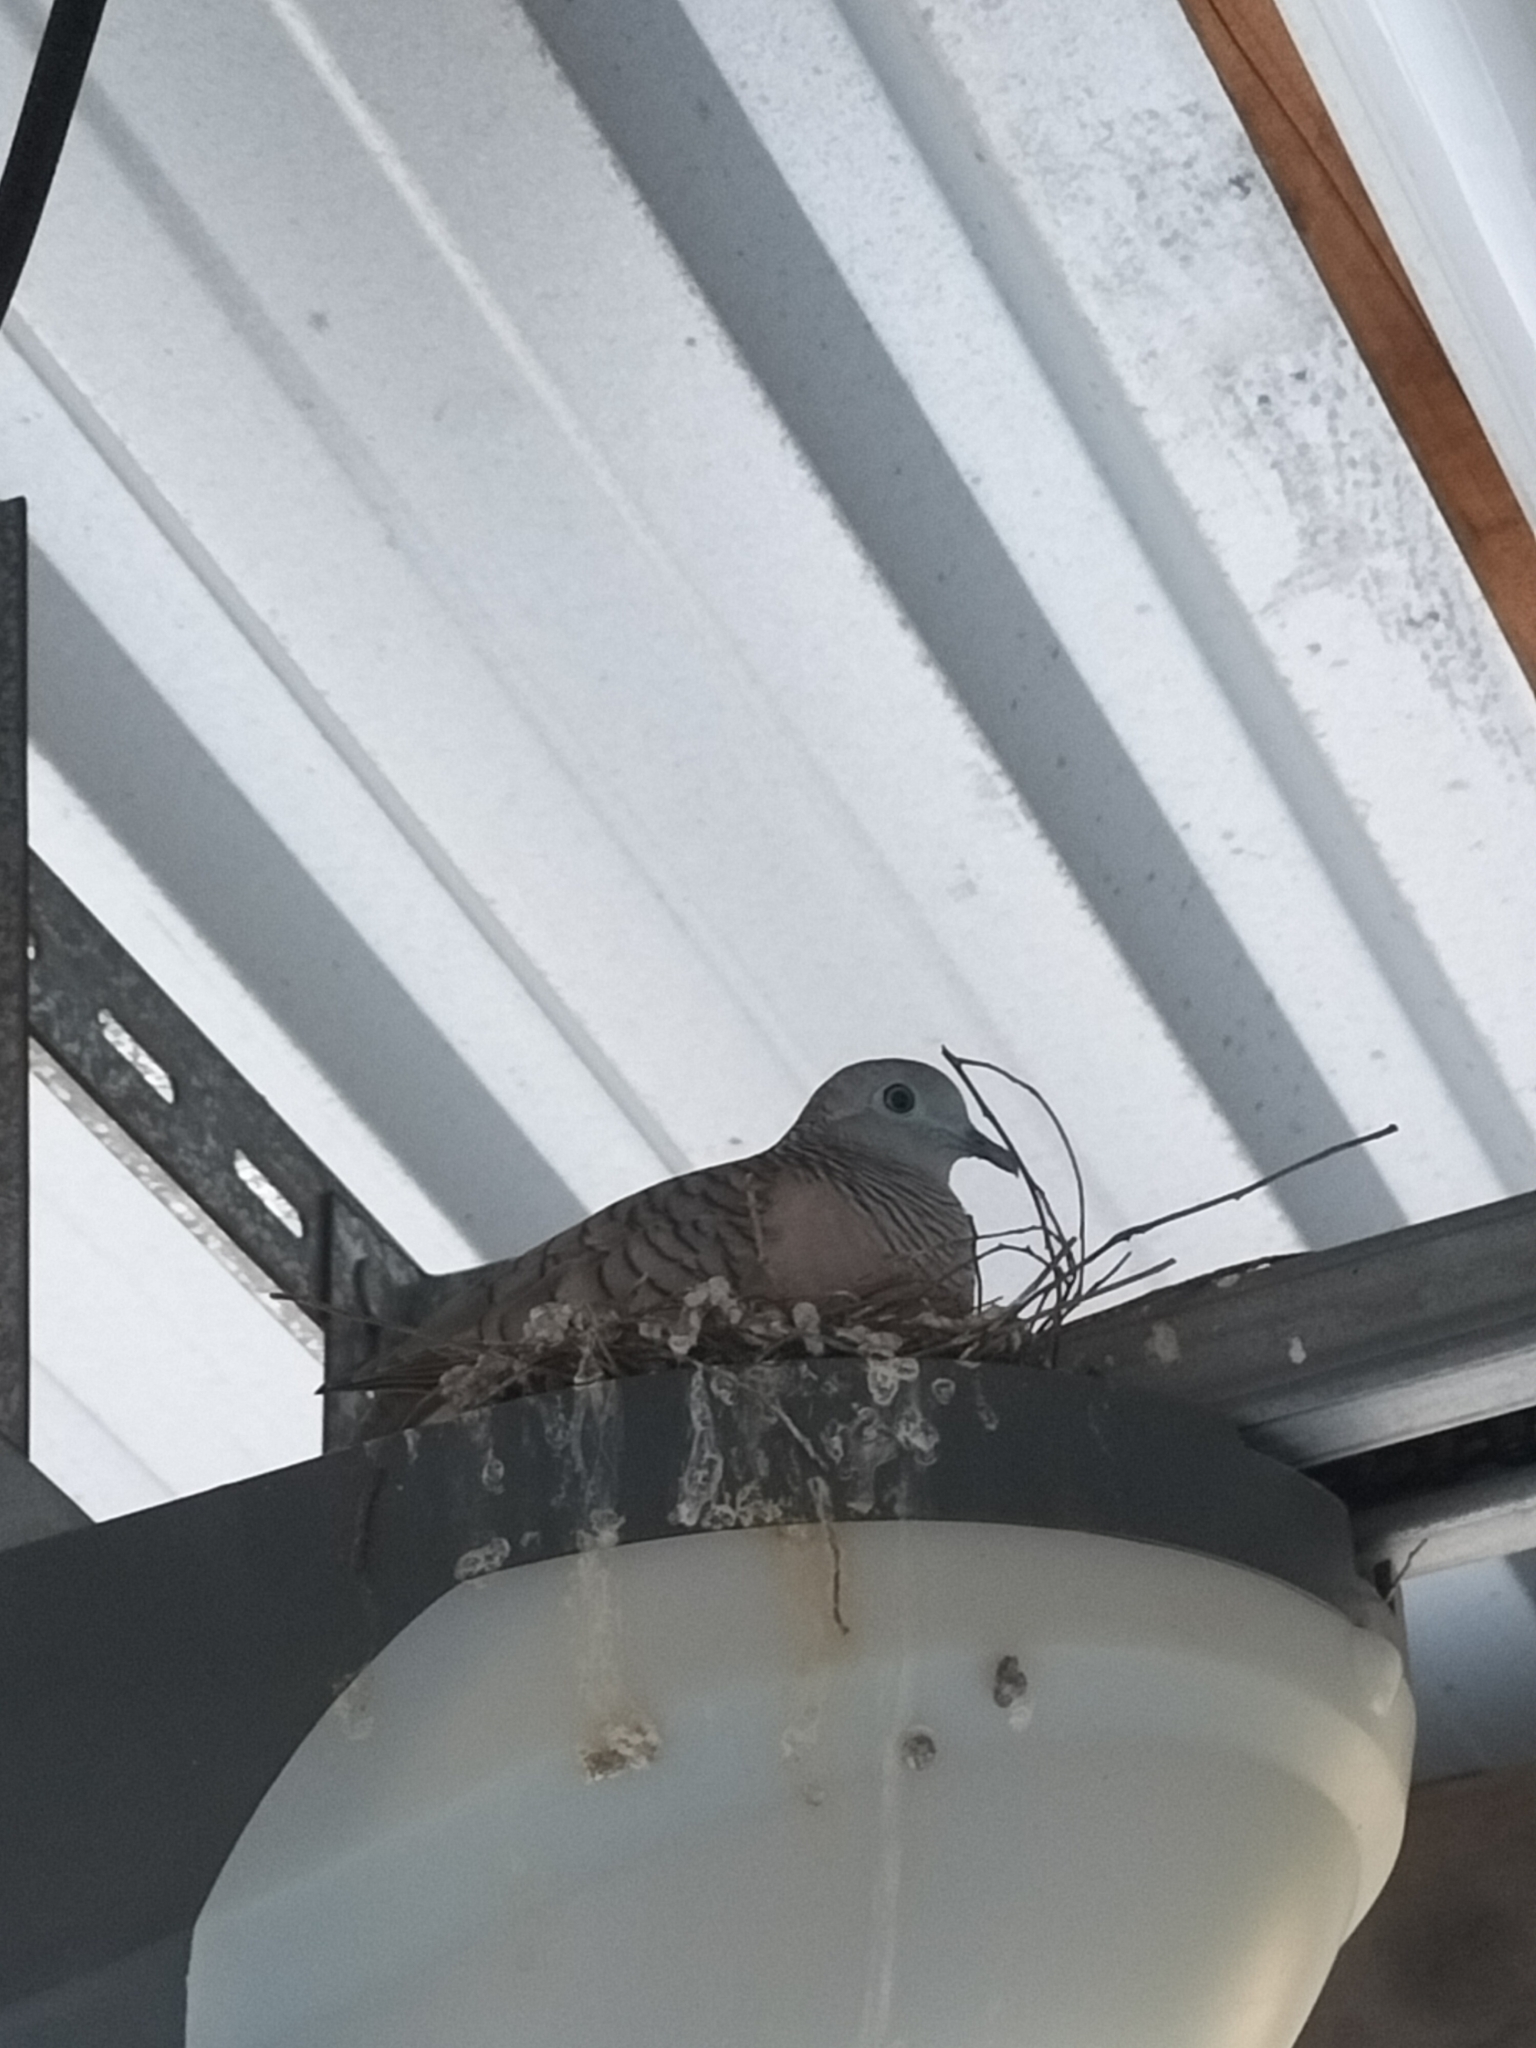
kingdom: Animalia
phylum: Chordata
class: Aves
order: Columbiformes
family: Columbidae
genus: Geopelia
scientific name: Geopelia placida
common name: Peaceful dove
